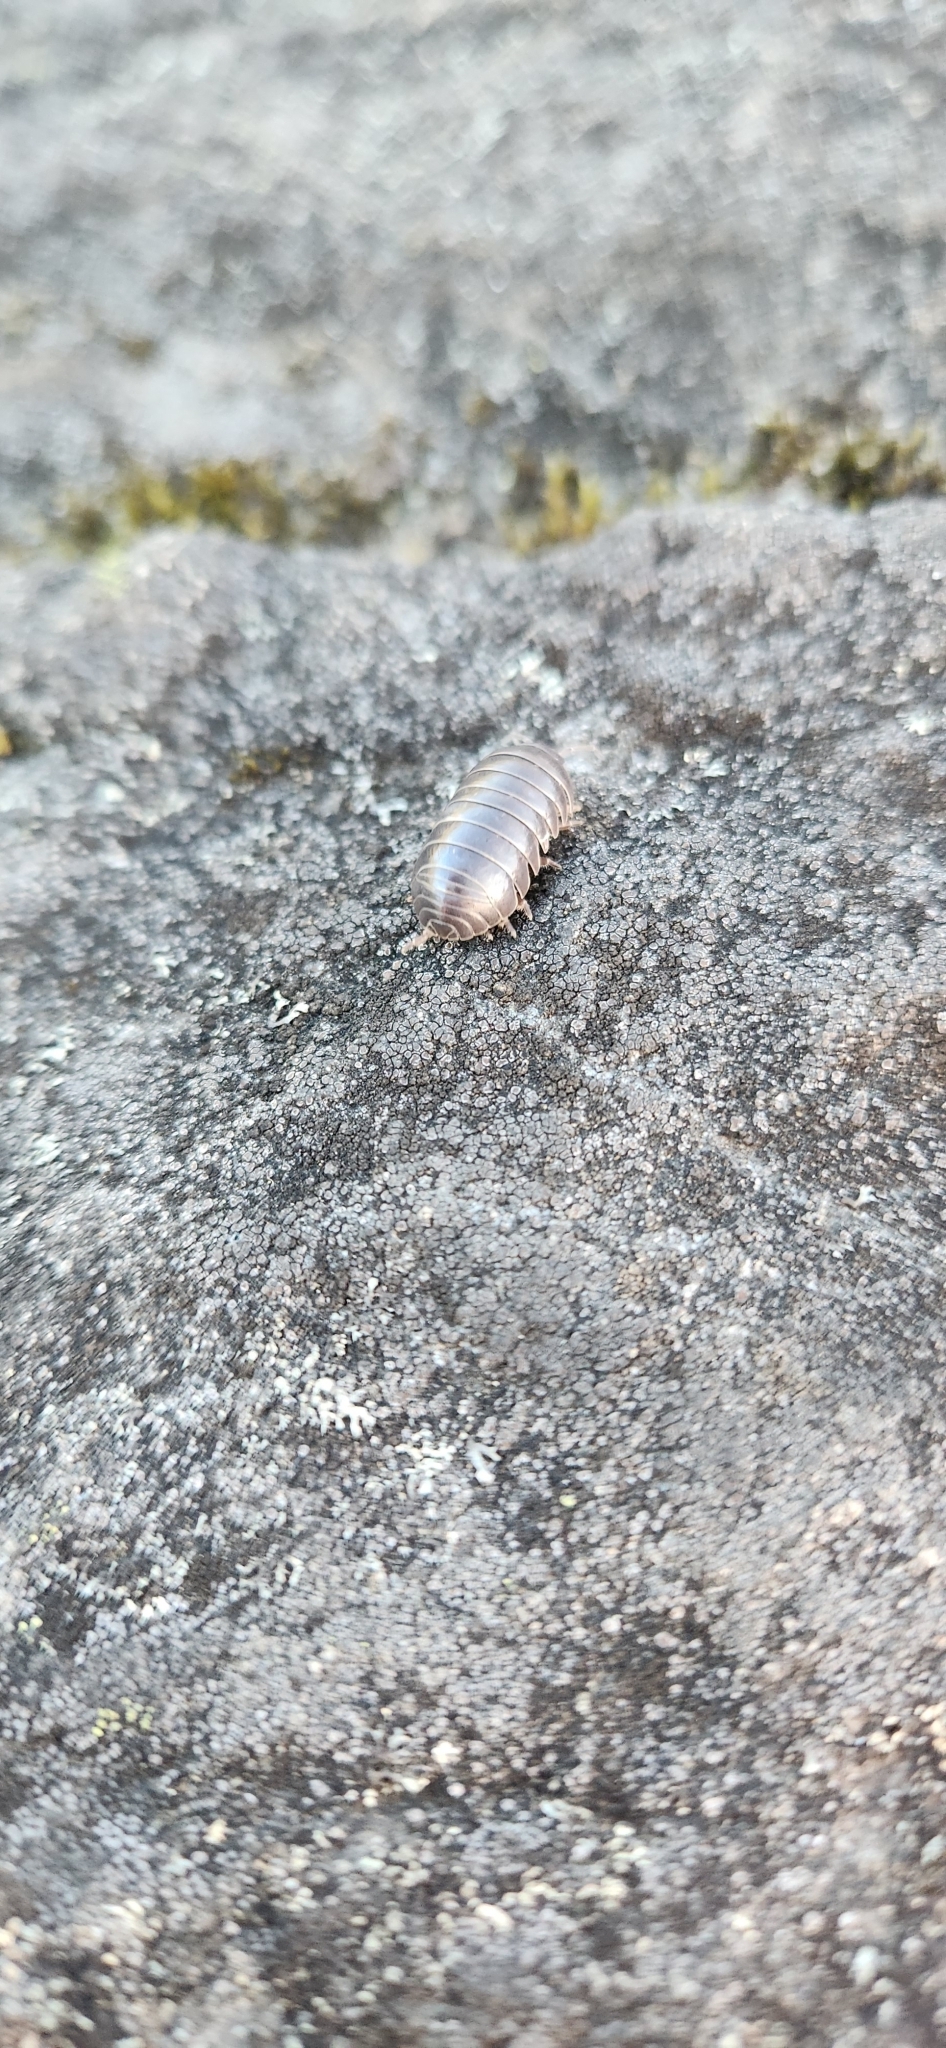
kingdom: Animalia
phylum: Arthropoda
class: Malacostraca
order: Isopoda
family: Armadillidiidae
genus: Armadillidium
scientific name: Armadillidium vulgare
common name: Common pill woodlouse
